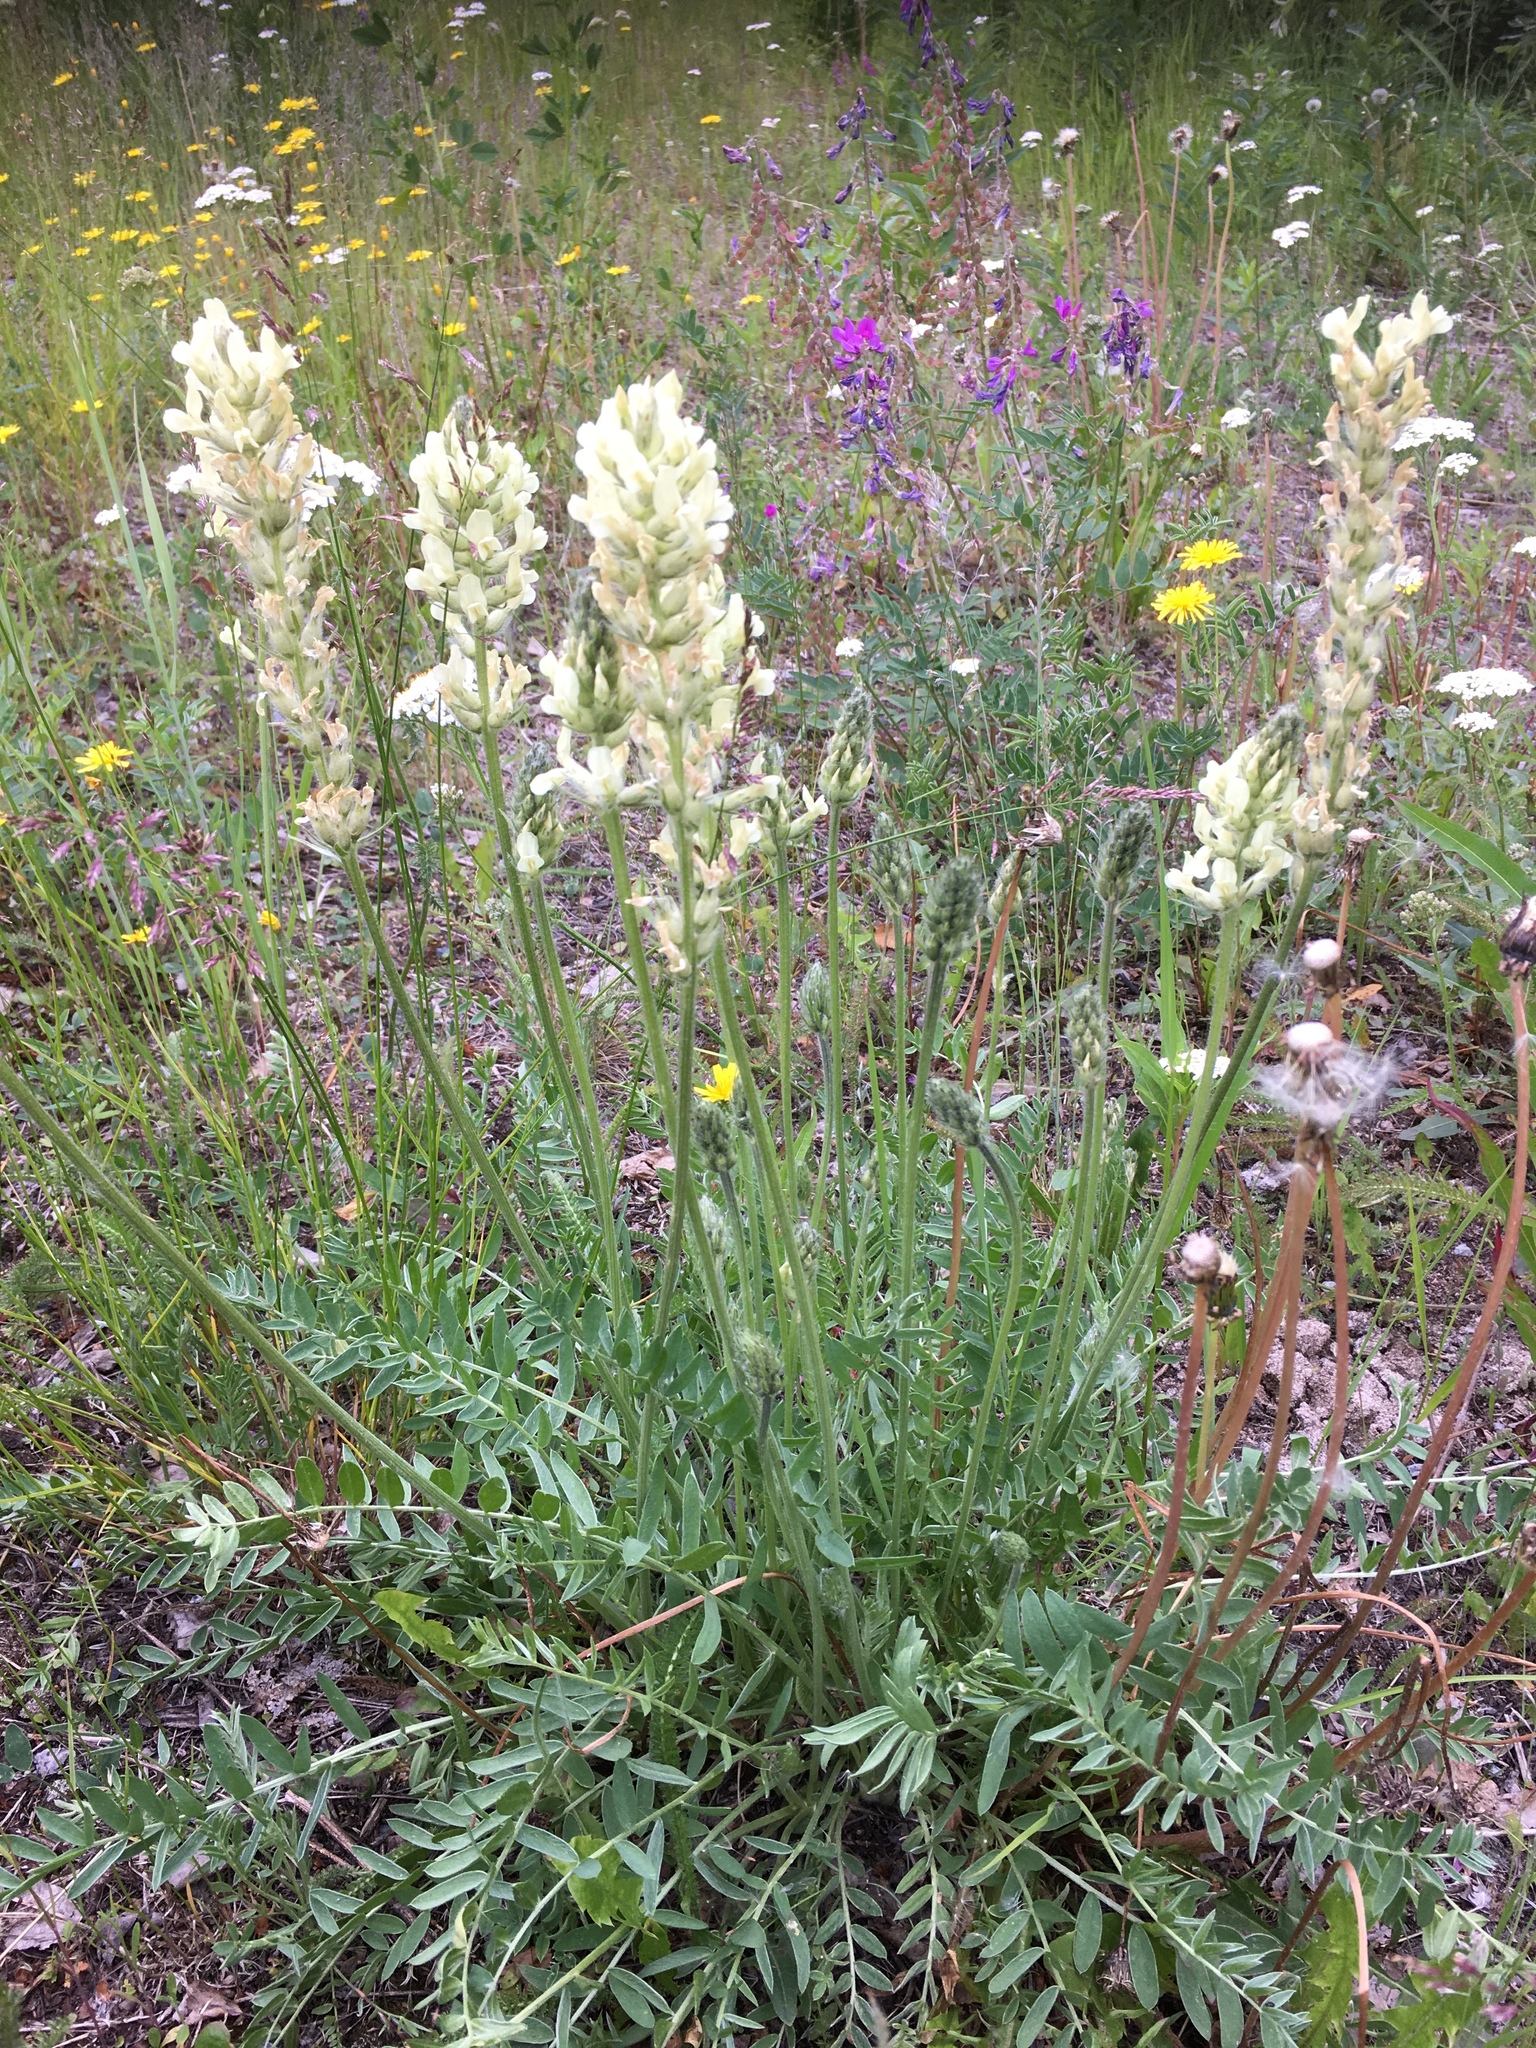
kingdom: Plantae
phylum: Tracheophyta
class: Magnoliopsida
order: Fabales
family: Fabaceae
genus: Oxytropis
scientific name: Oxytropis campestris
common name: Field locoweed
